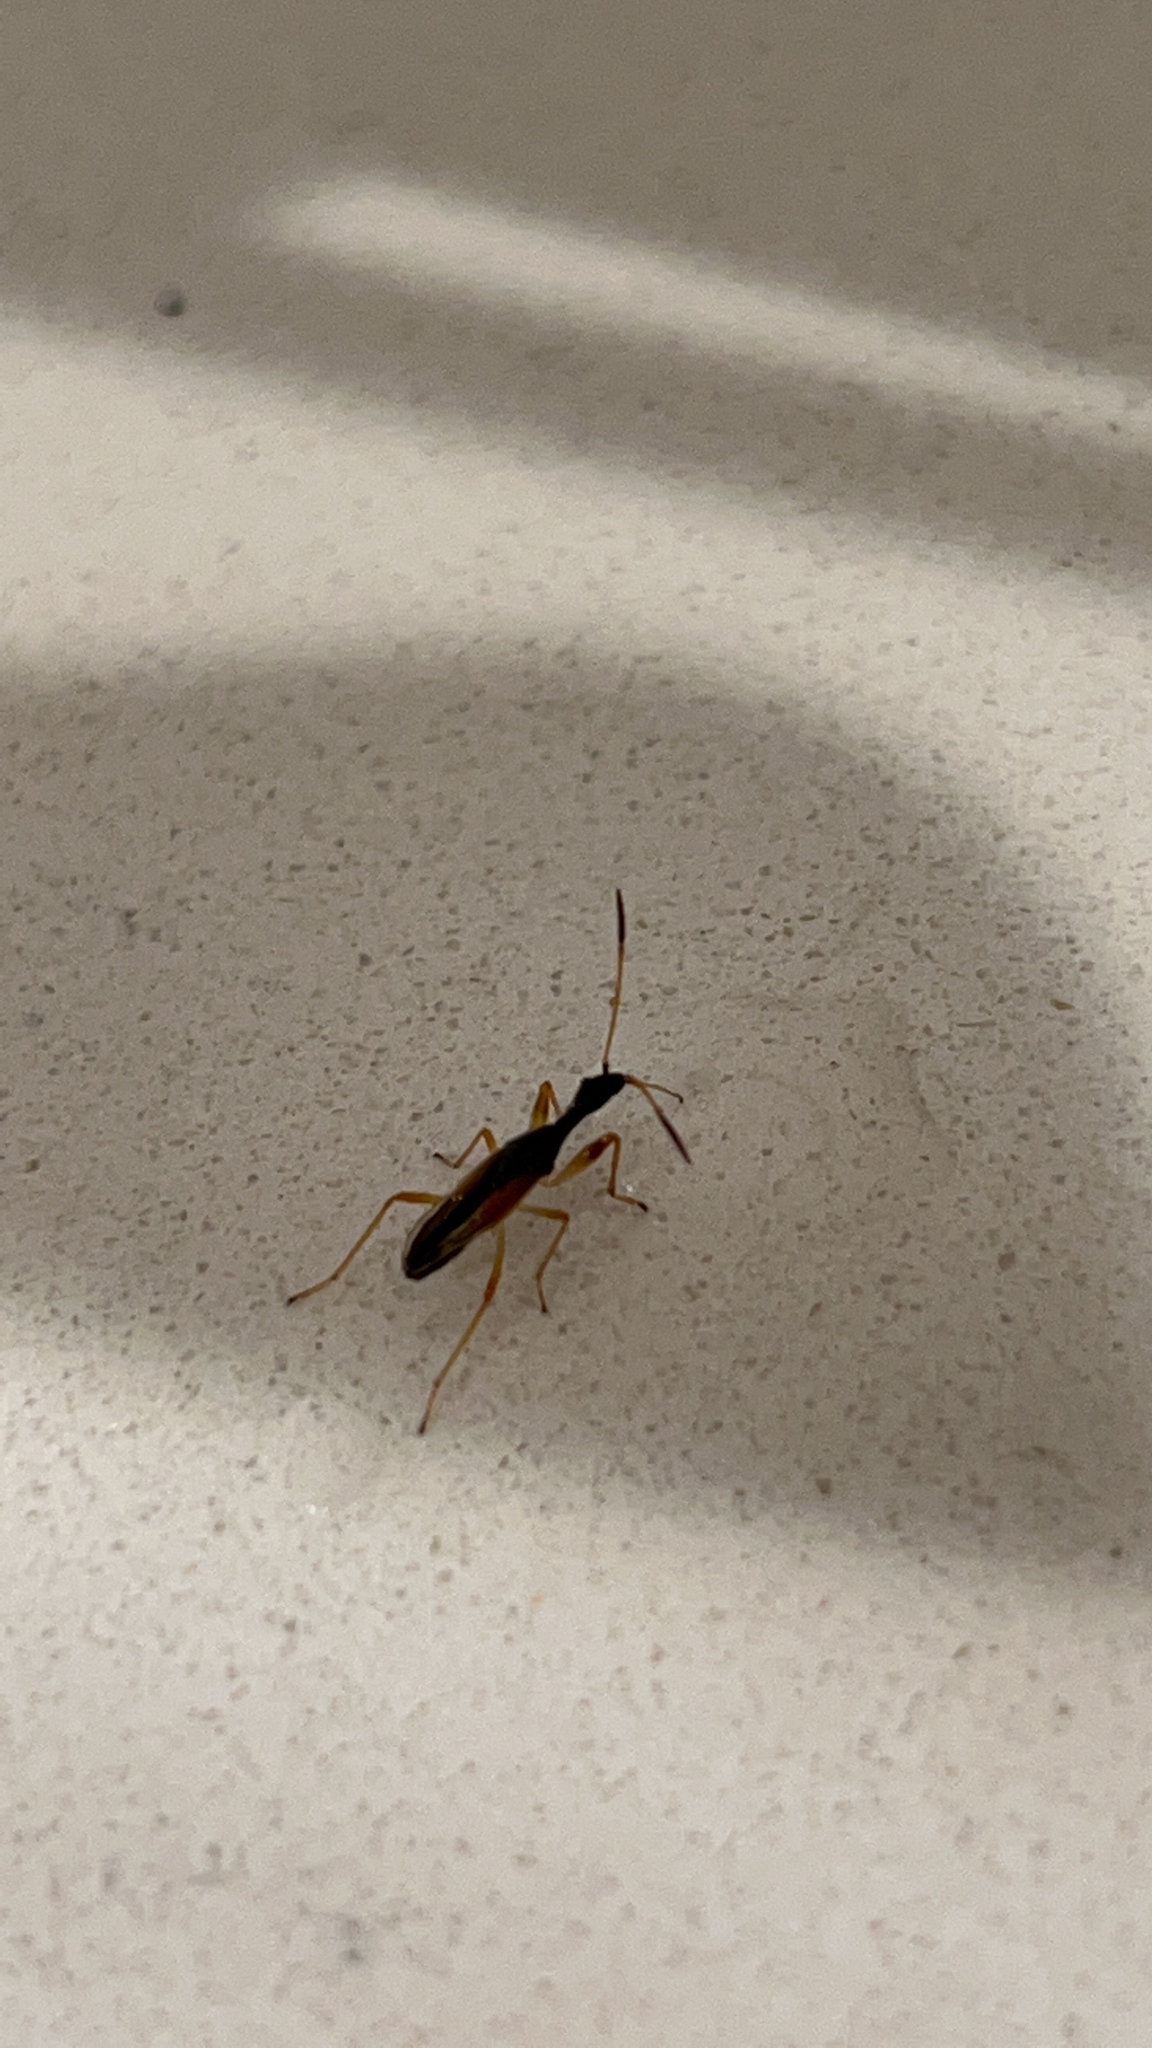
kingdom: Animalia
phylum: Arthropoda
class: Insecta
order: Hemiptera
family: Rhyparochromidae
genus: Myodocha
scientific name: Myodocha serripes
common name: Long-necked seed bug
